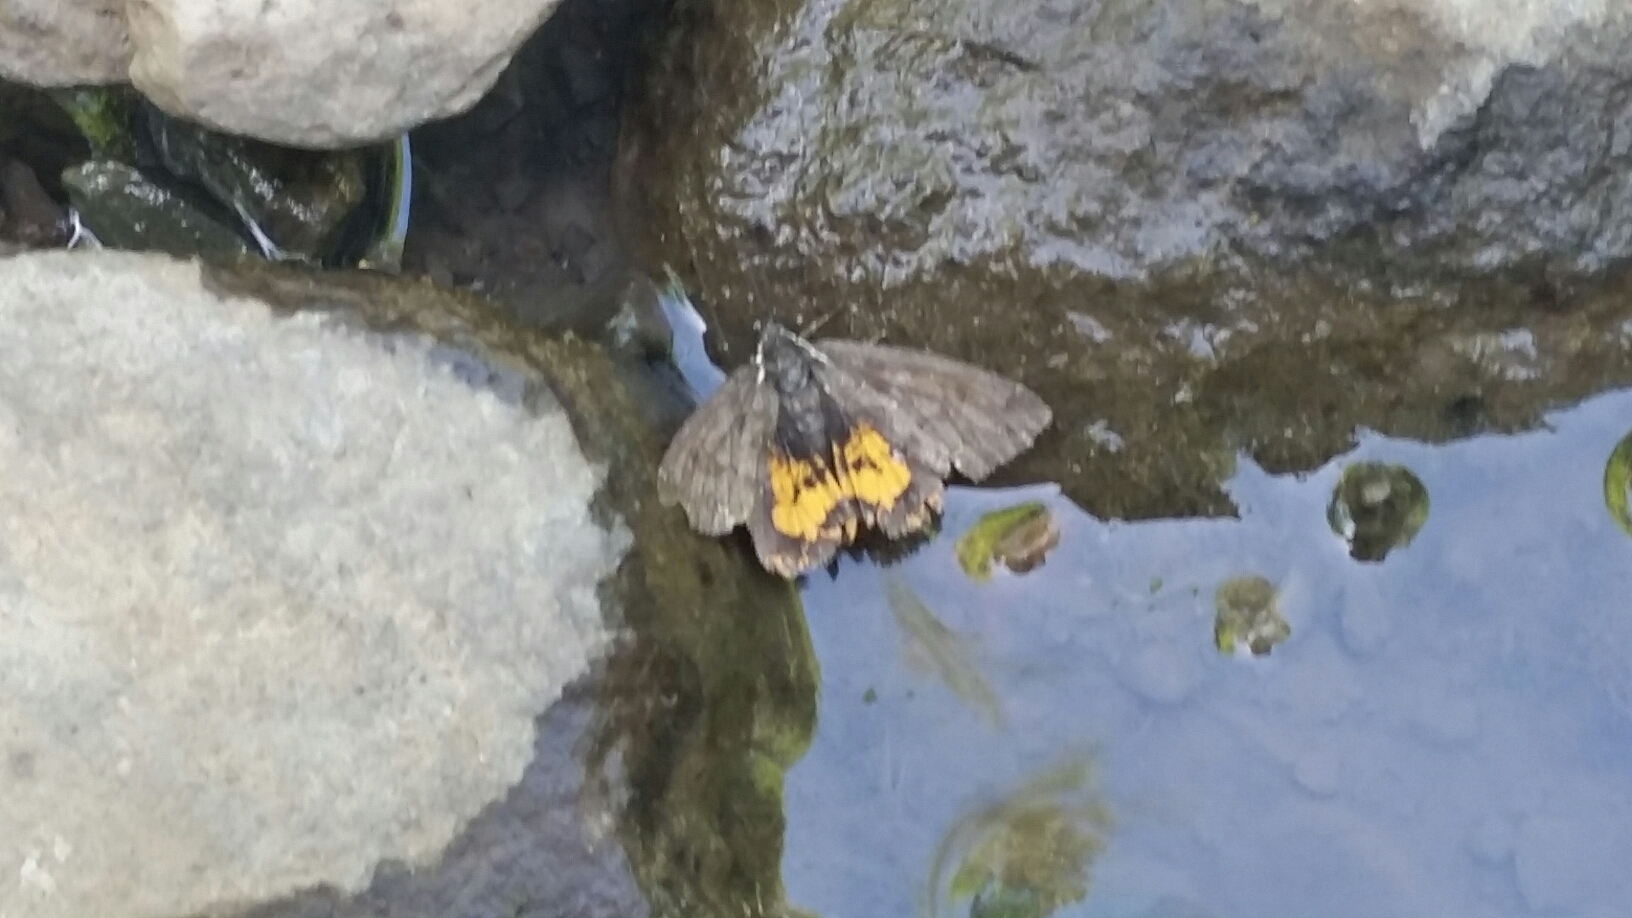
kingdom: Animalia
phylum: Arthropoda
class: Insecta
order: Lepidoptera
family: Erebidae
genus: Leptarctia
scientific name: Leptarctia californiae
